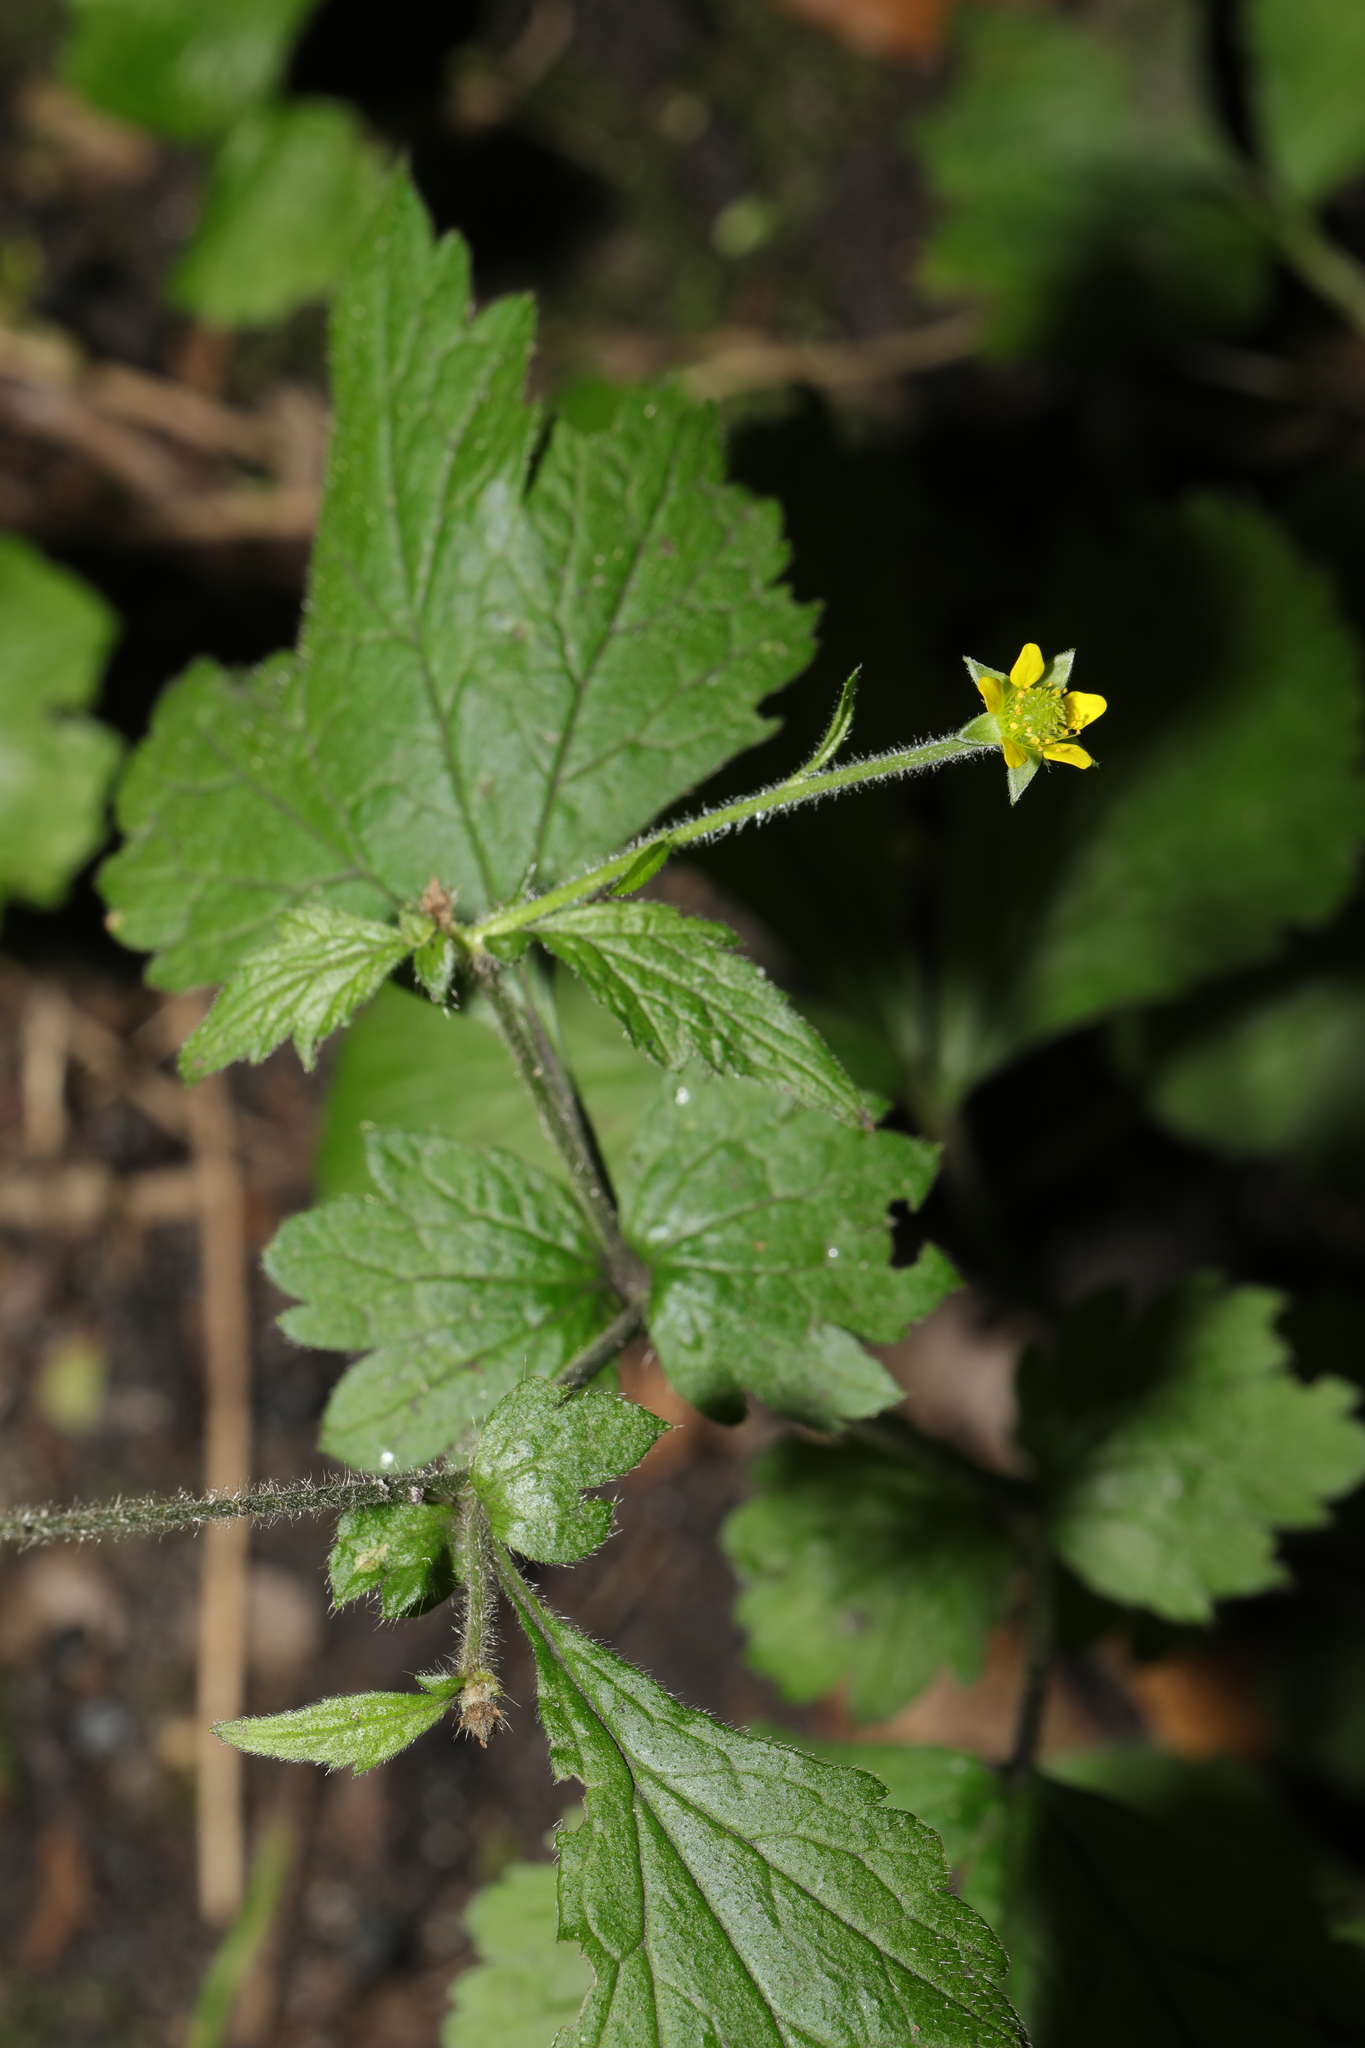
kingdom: Plantae
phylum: Tracheophyta
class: Magnoliopsida
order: Rosales
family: Rosaceae
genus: Geum
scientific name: Geum urbanum
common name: Wood avens
